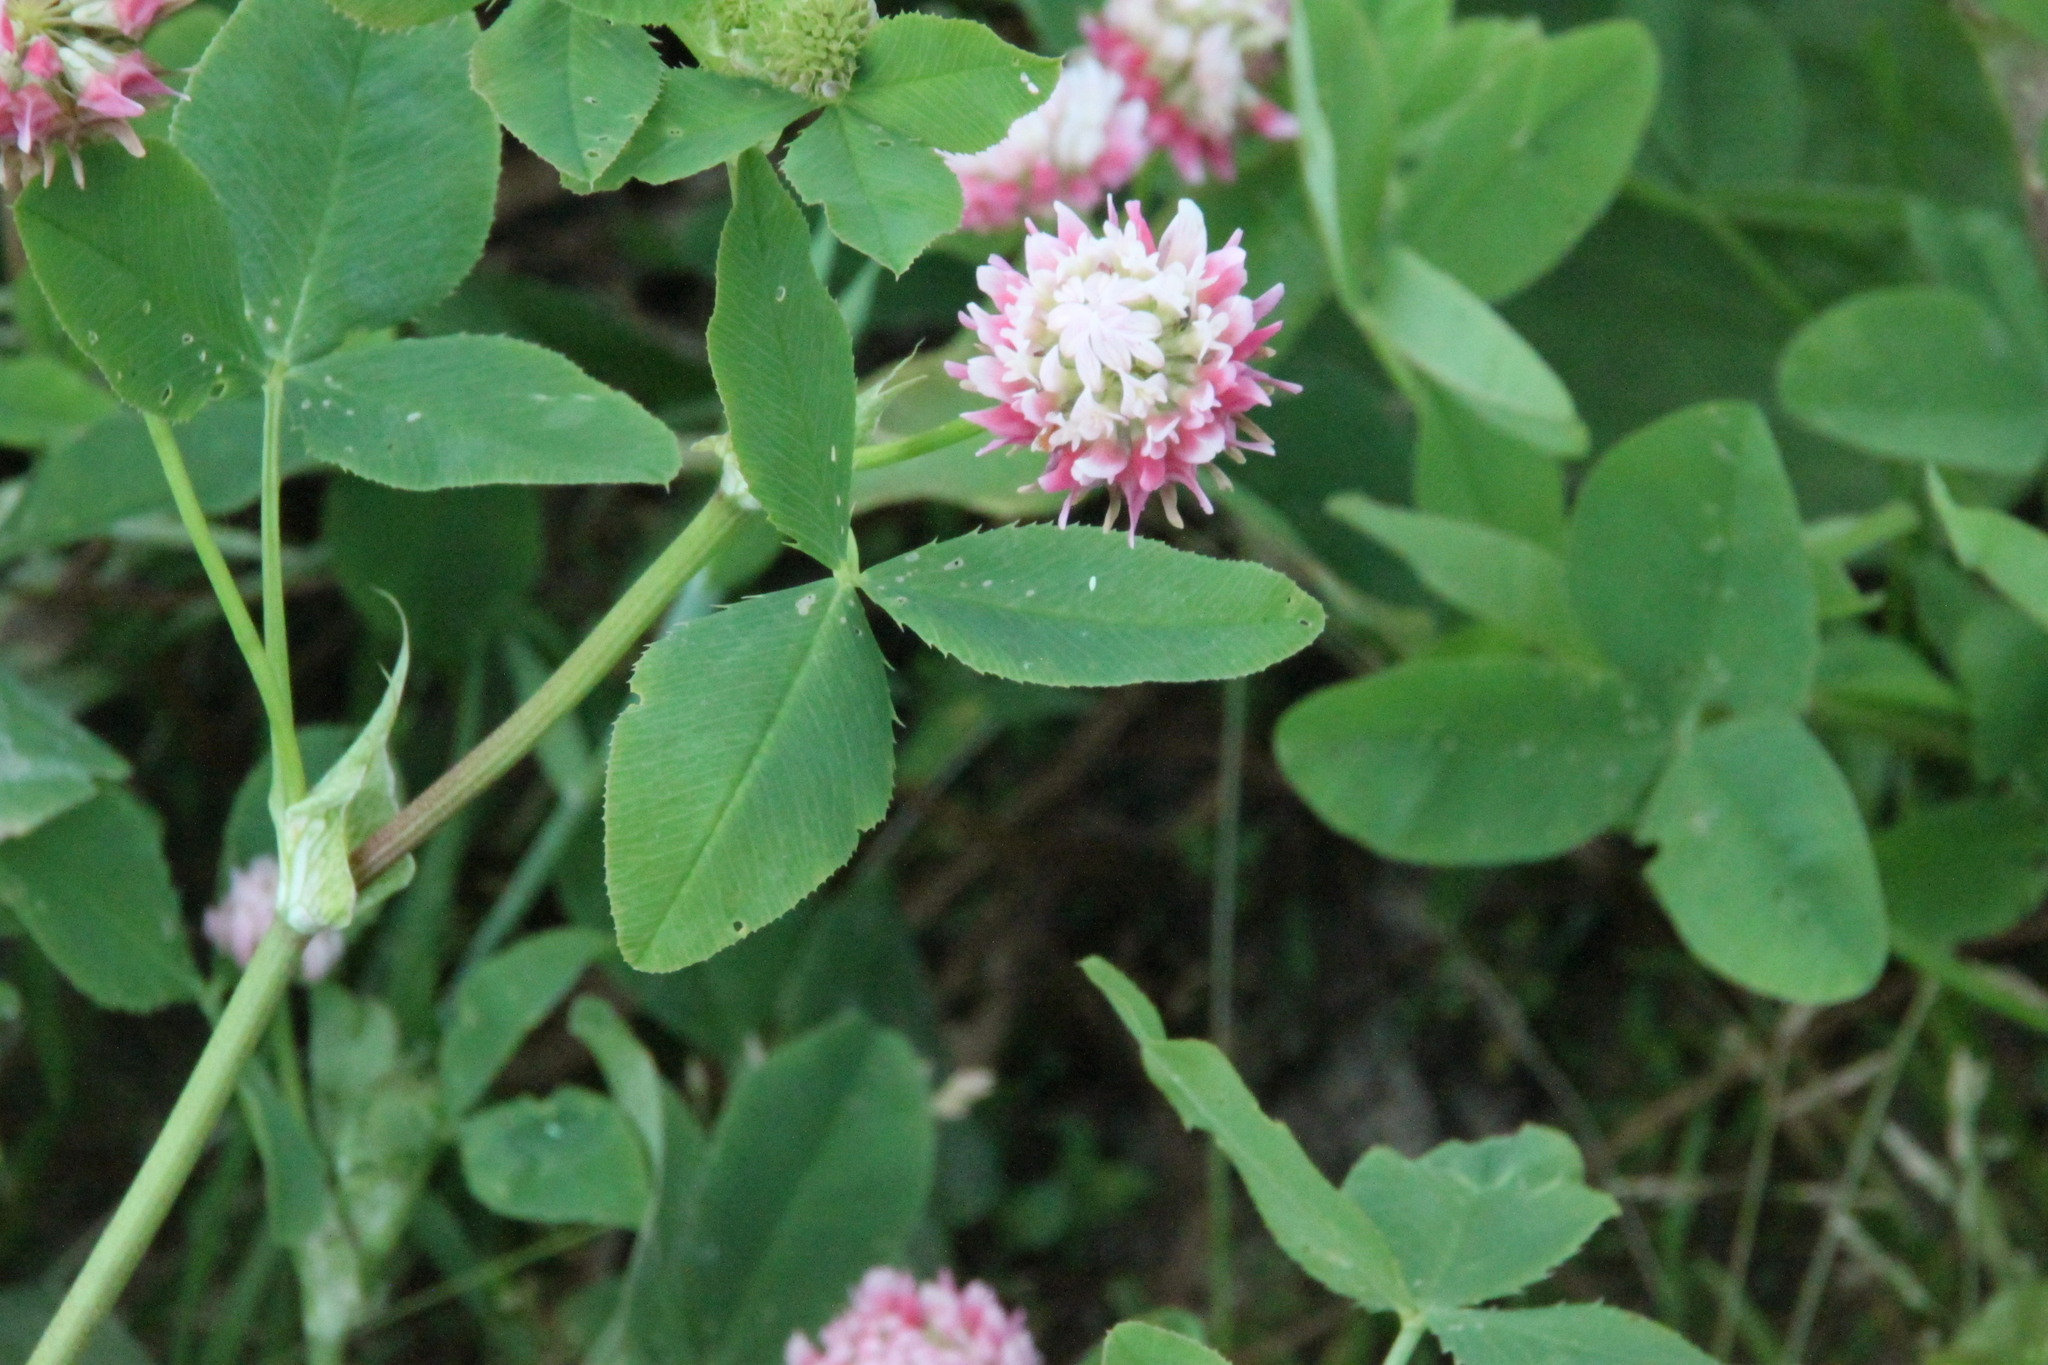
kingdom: Plantae
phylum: Tracheophyta
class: Magnoliopsida
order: Fabales
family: Fabaceae
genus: Trifolium
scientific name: Trifolium hybridum
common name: Alsike clover
